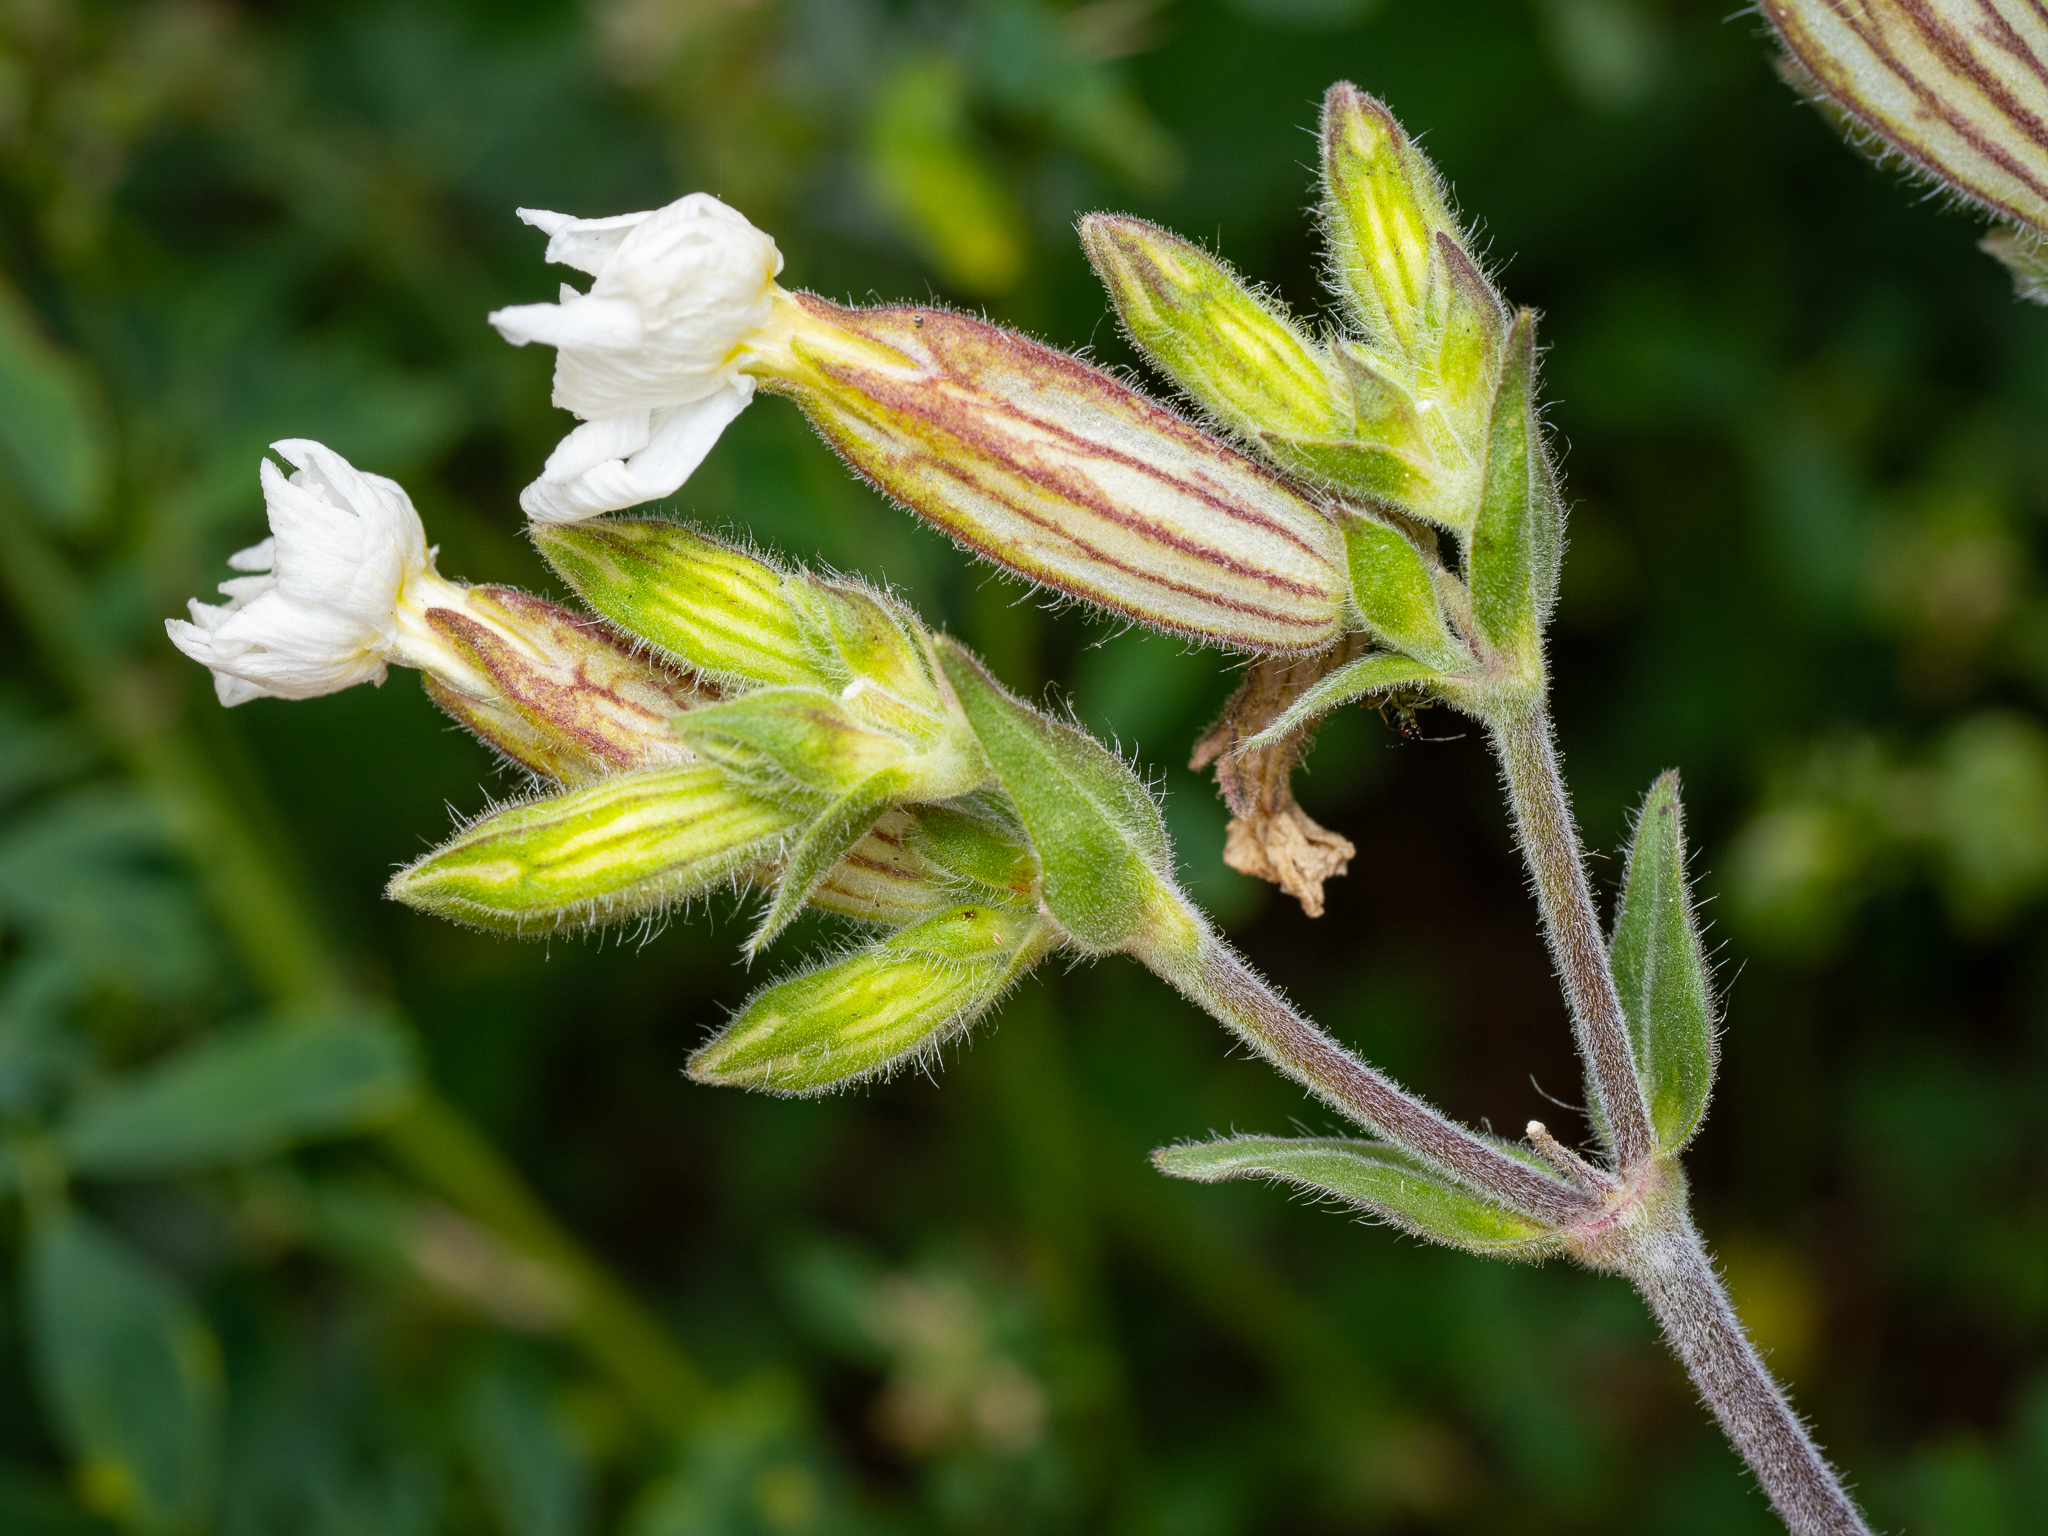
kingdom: Plantae
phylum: Tracheophyta
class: Magnoliopsida
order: Caryophyllales
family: Caryophyllaceae
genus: Silene
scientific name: Silene latifolia
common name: White campion
